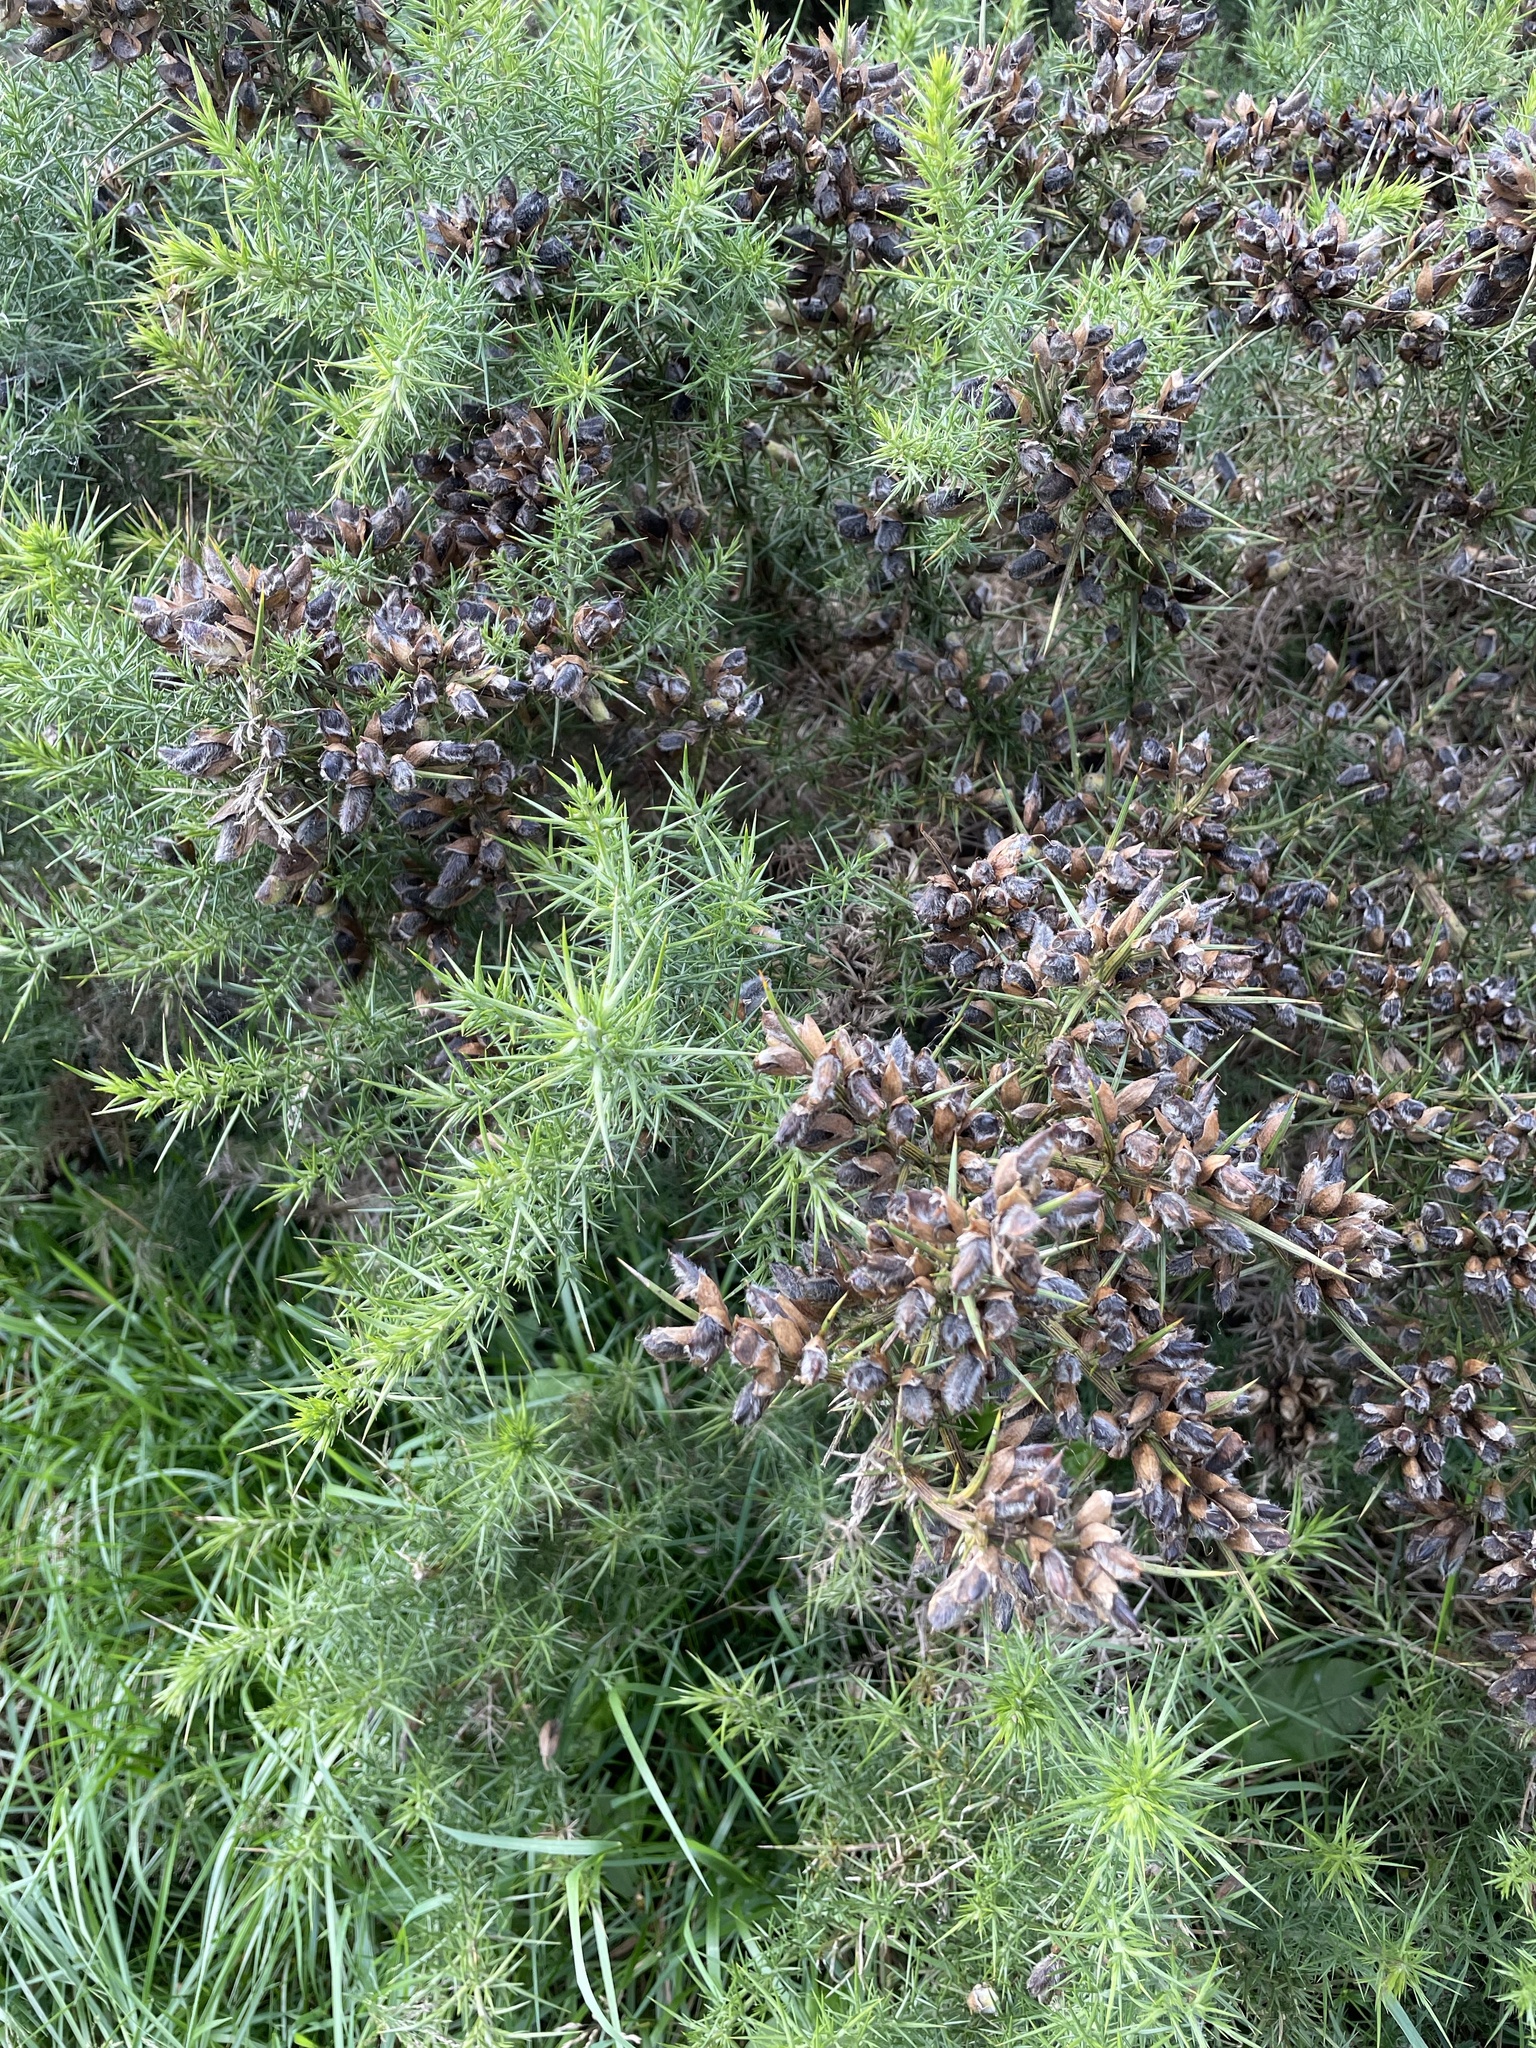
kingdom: Plantae
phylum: Tracheophyta
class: Magnoliopsida
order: Fabales
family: Fabaceae
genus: Ulex
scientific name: Ulex europaeus
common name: Common gorse
